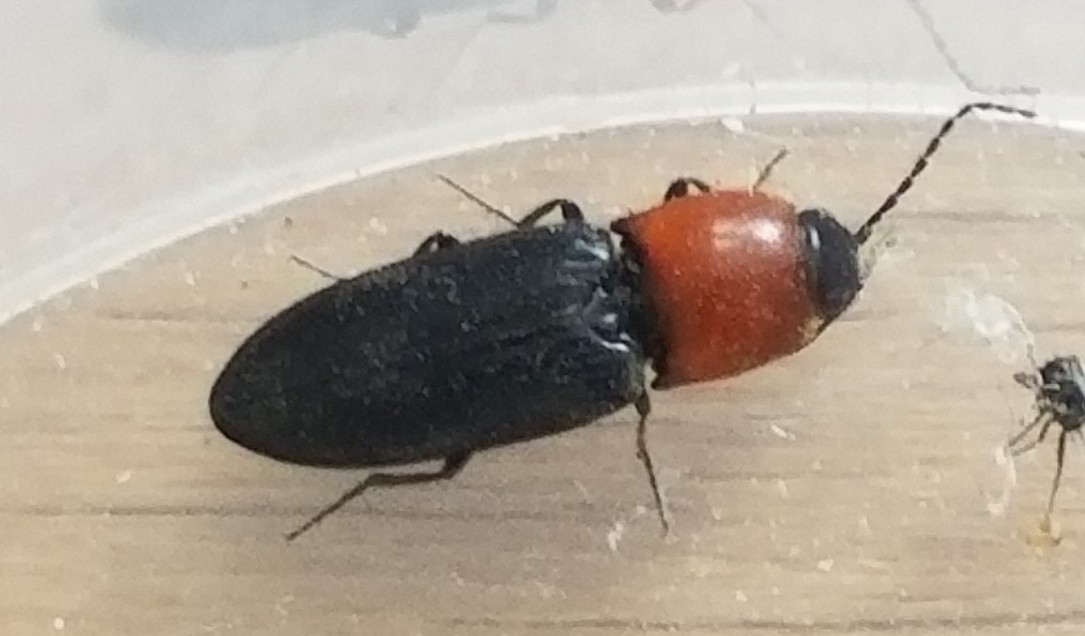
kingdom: Animalia
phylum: Arthropoda
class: Insecta
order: Coleoptera
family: Elateridae
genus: Cardiophorus
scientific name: Cardiophorus gramineus
